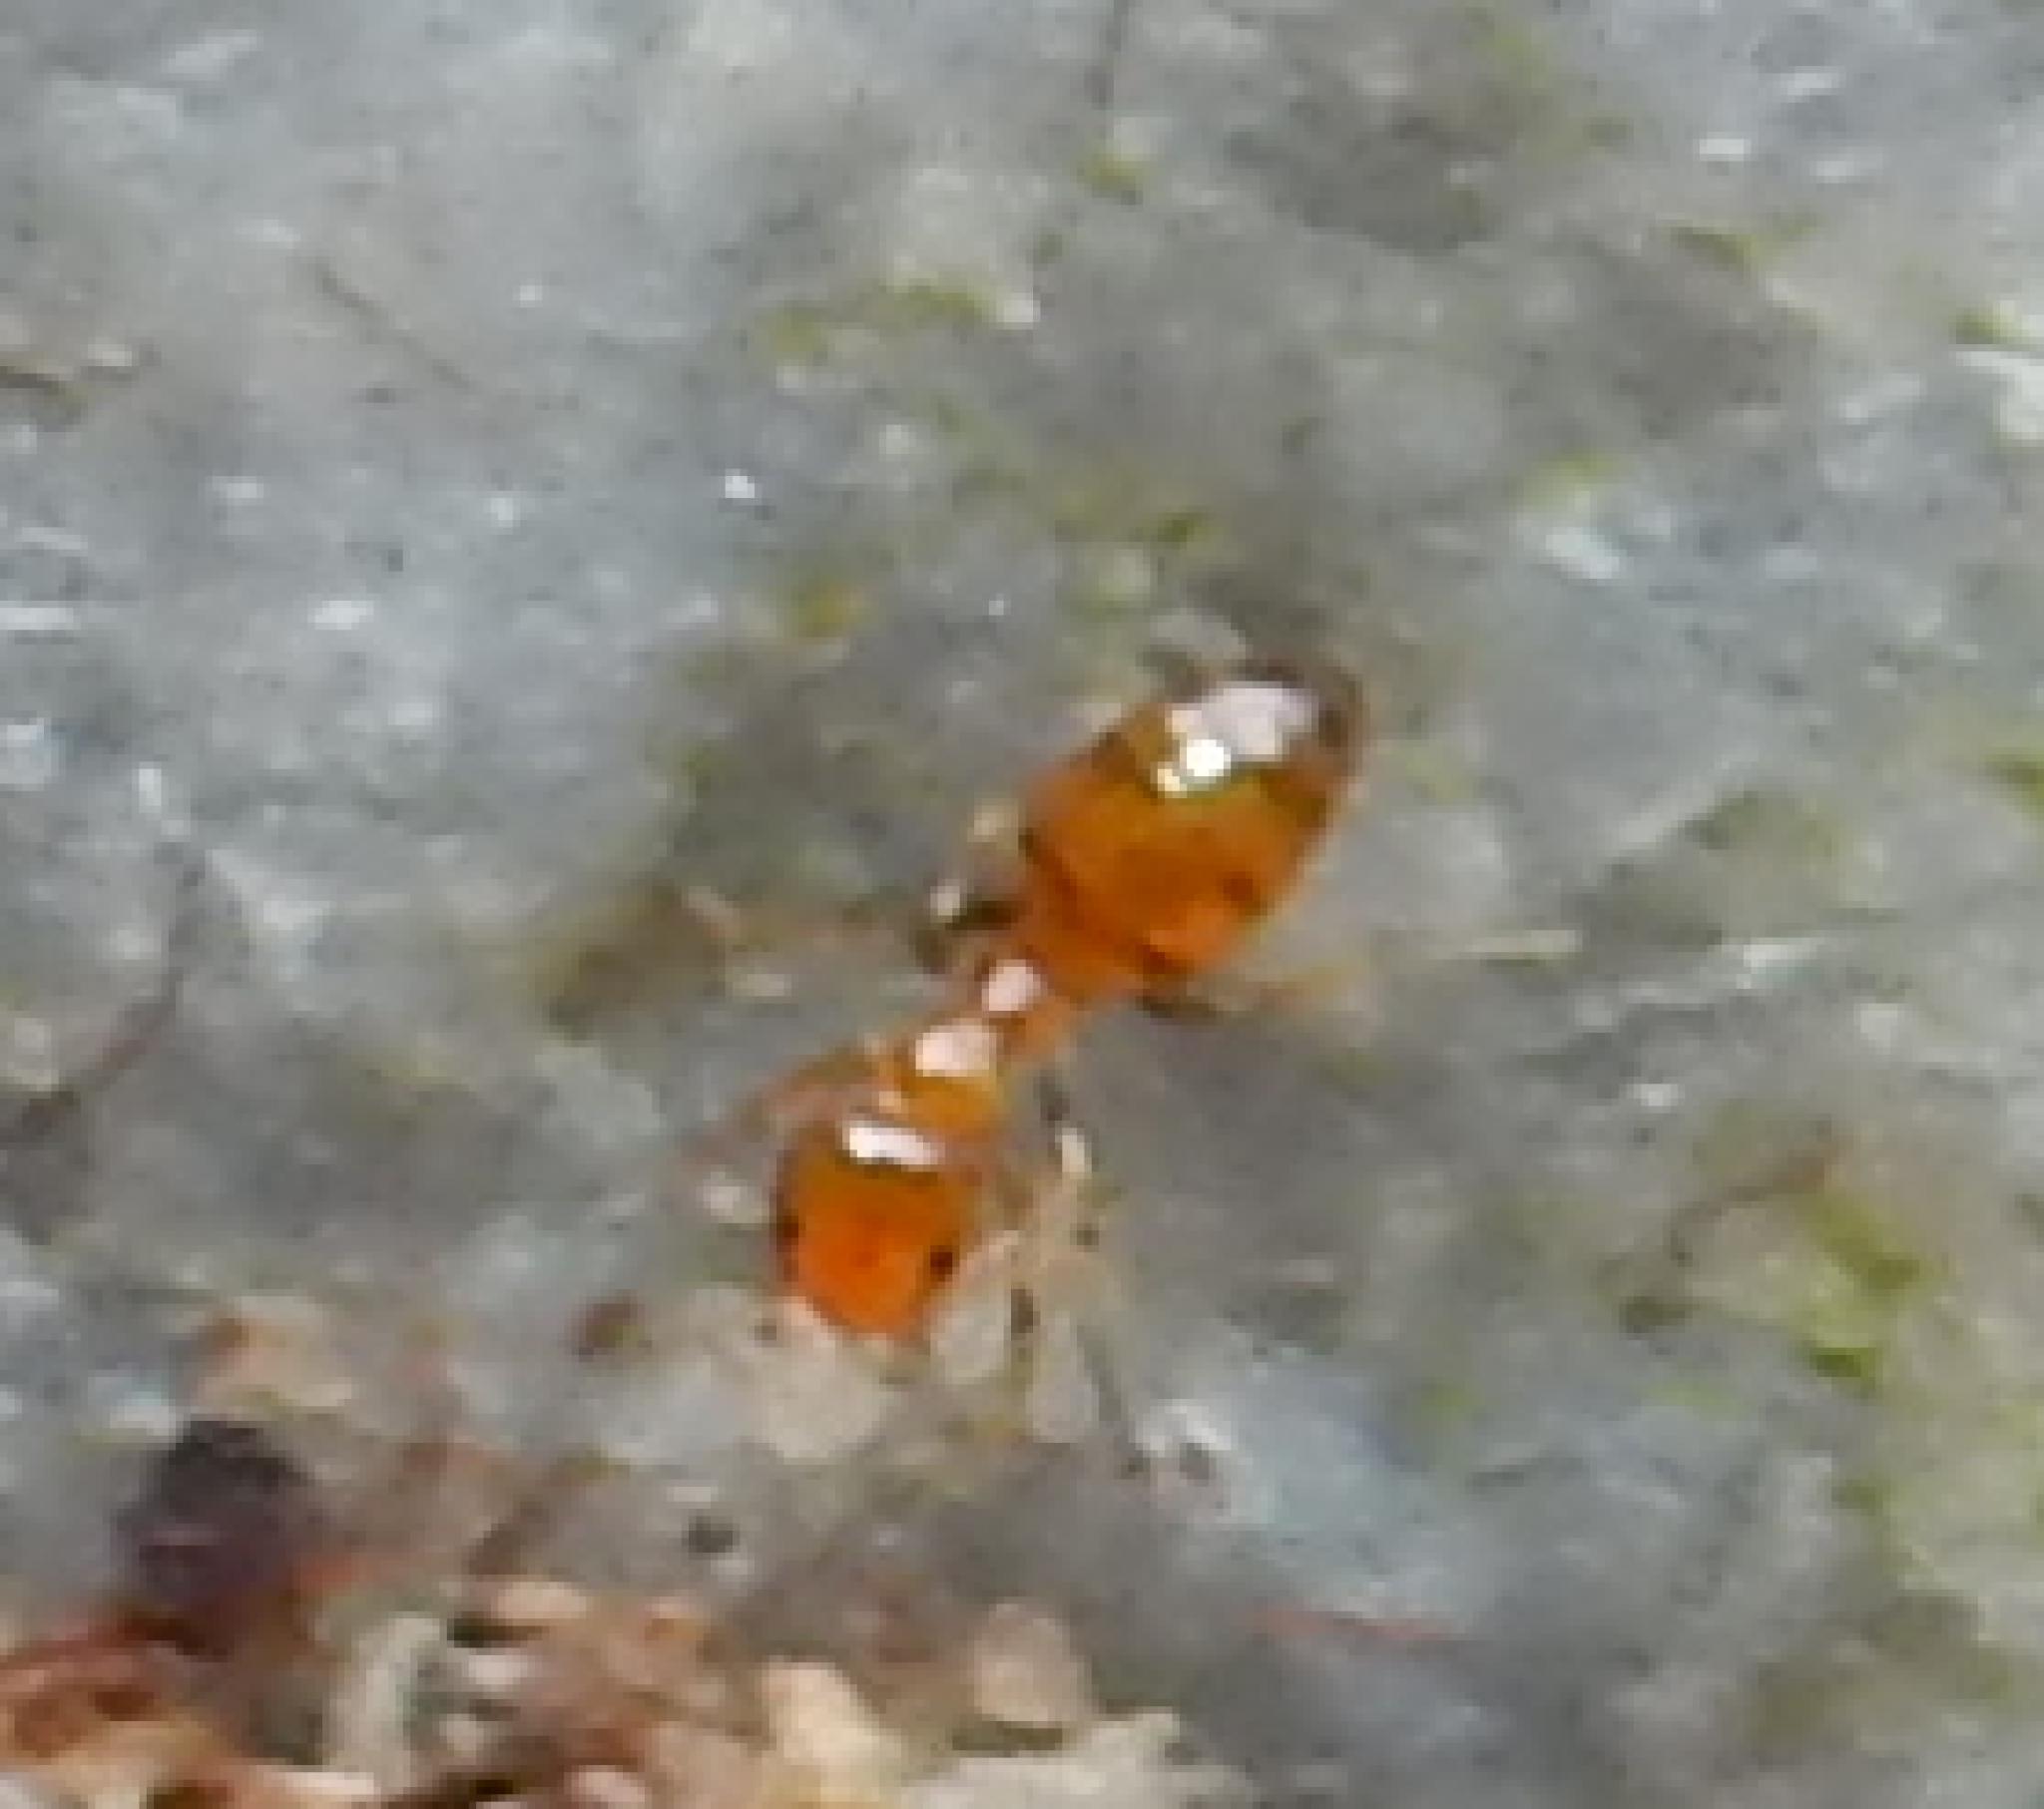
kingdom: Animalia
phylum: Arthropoda
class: Insecta
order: Hymenoptera
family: Formicidae
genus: Plagiolepis
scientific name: Plagiolepis brunni
